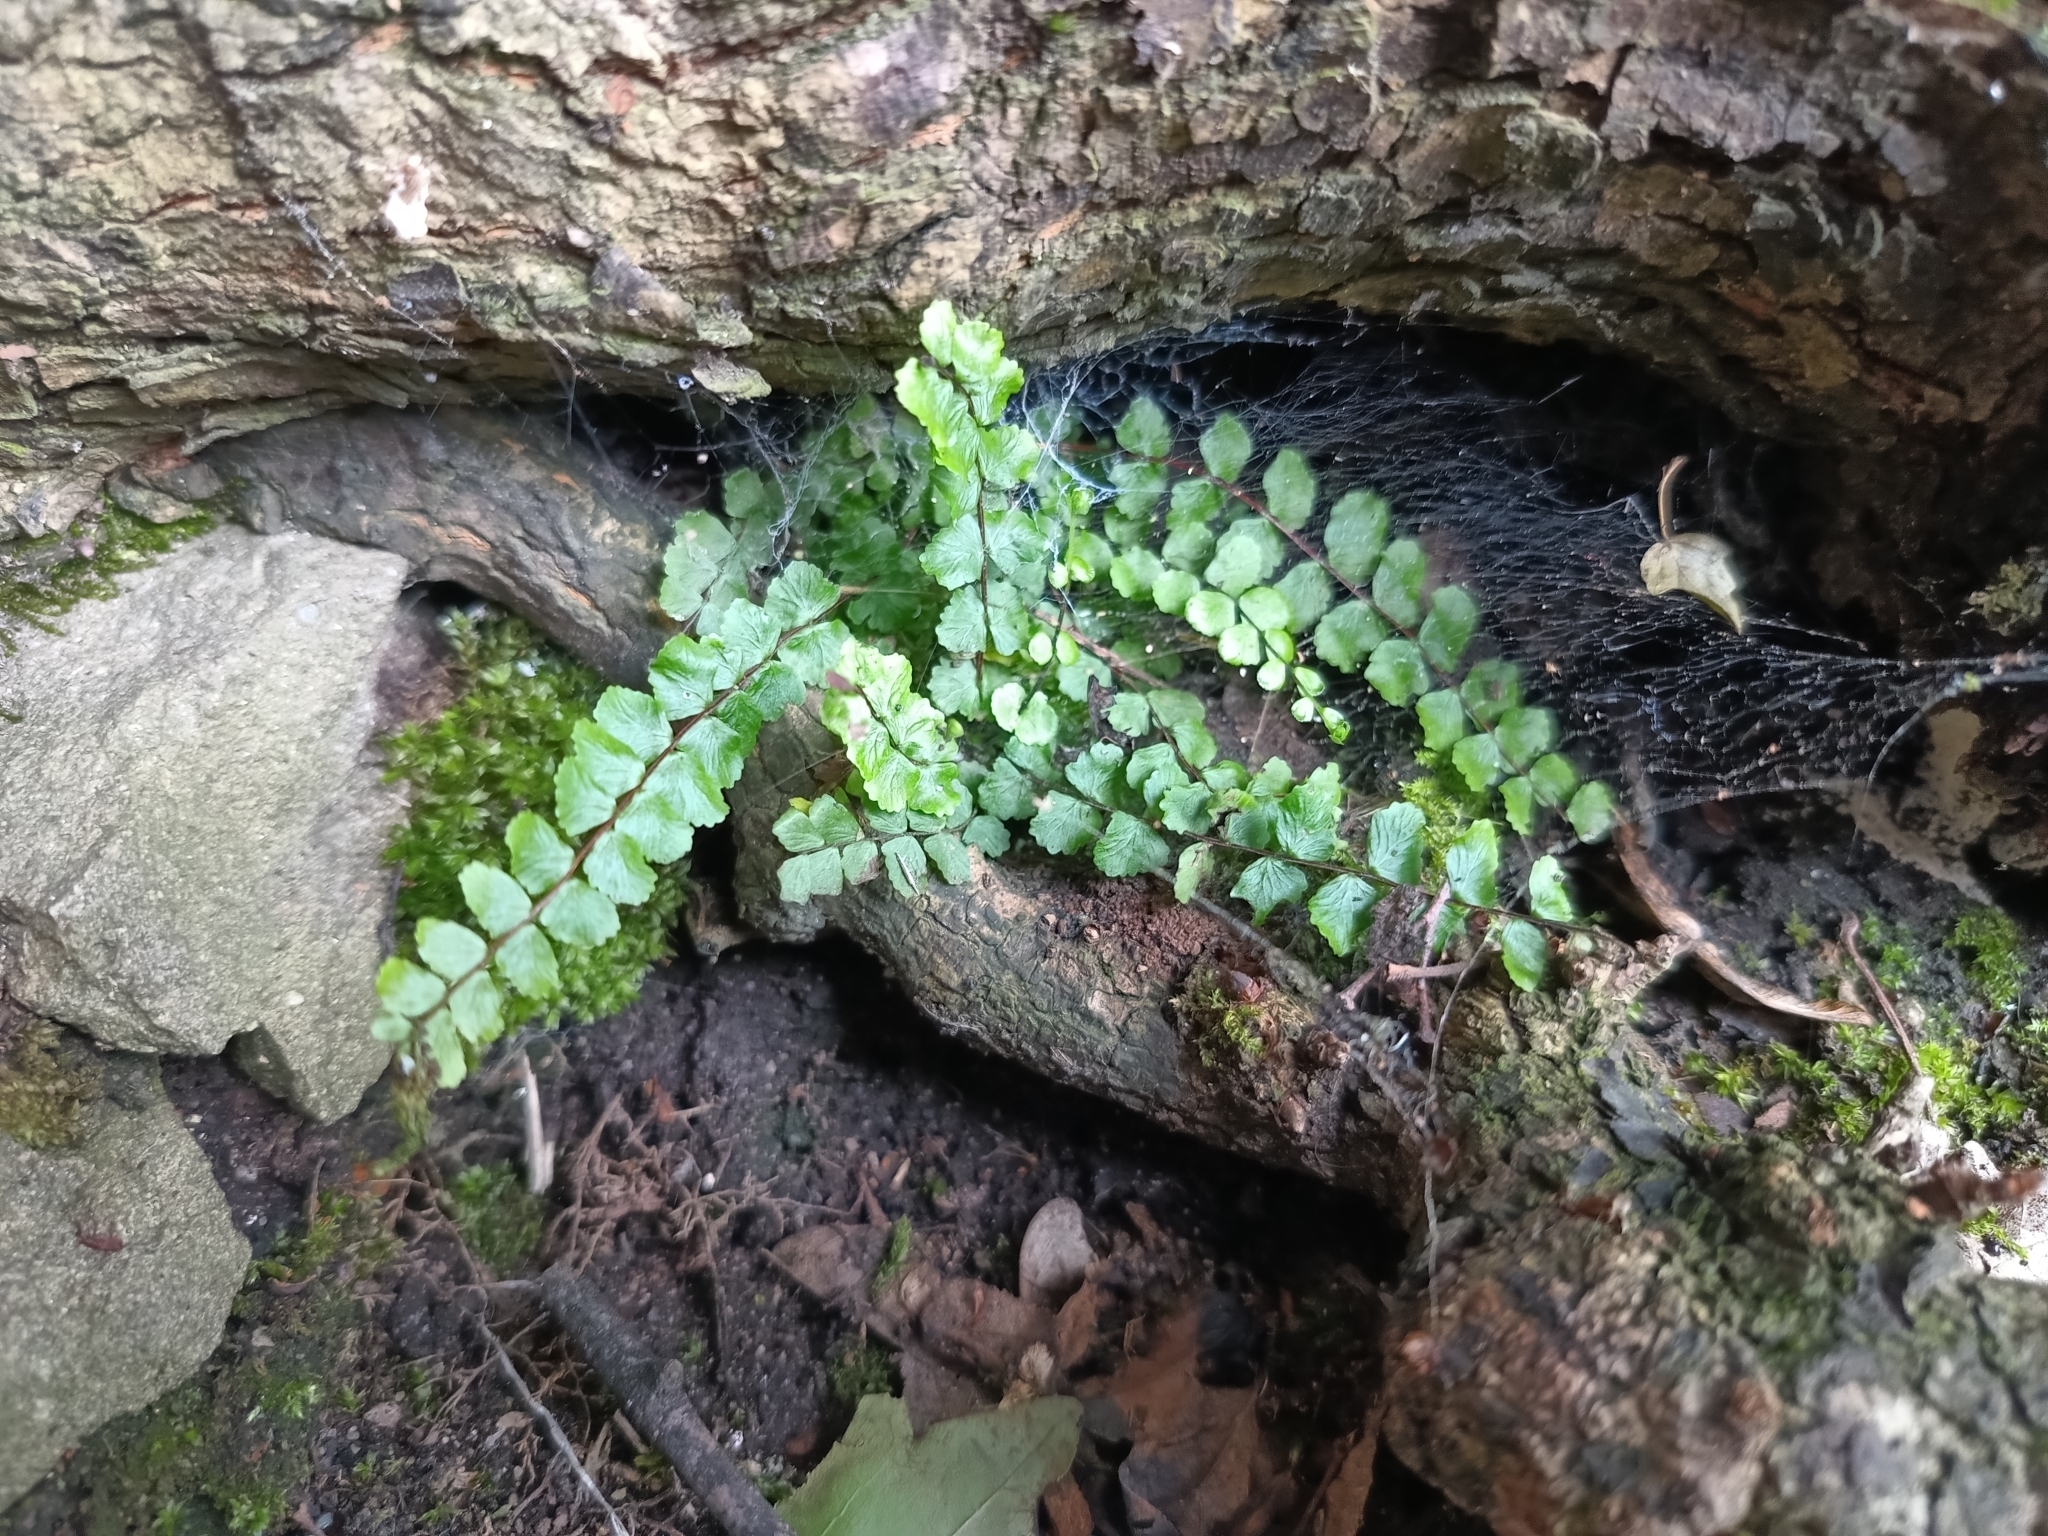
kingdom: Plantae
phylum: Tracheophyta
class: Polypodiopsida
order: Polypodiales
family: Aspleniaceae
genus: Asplenium
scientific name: Asplenium trichomanes
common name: Maidenhair spleenwort
